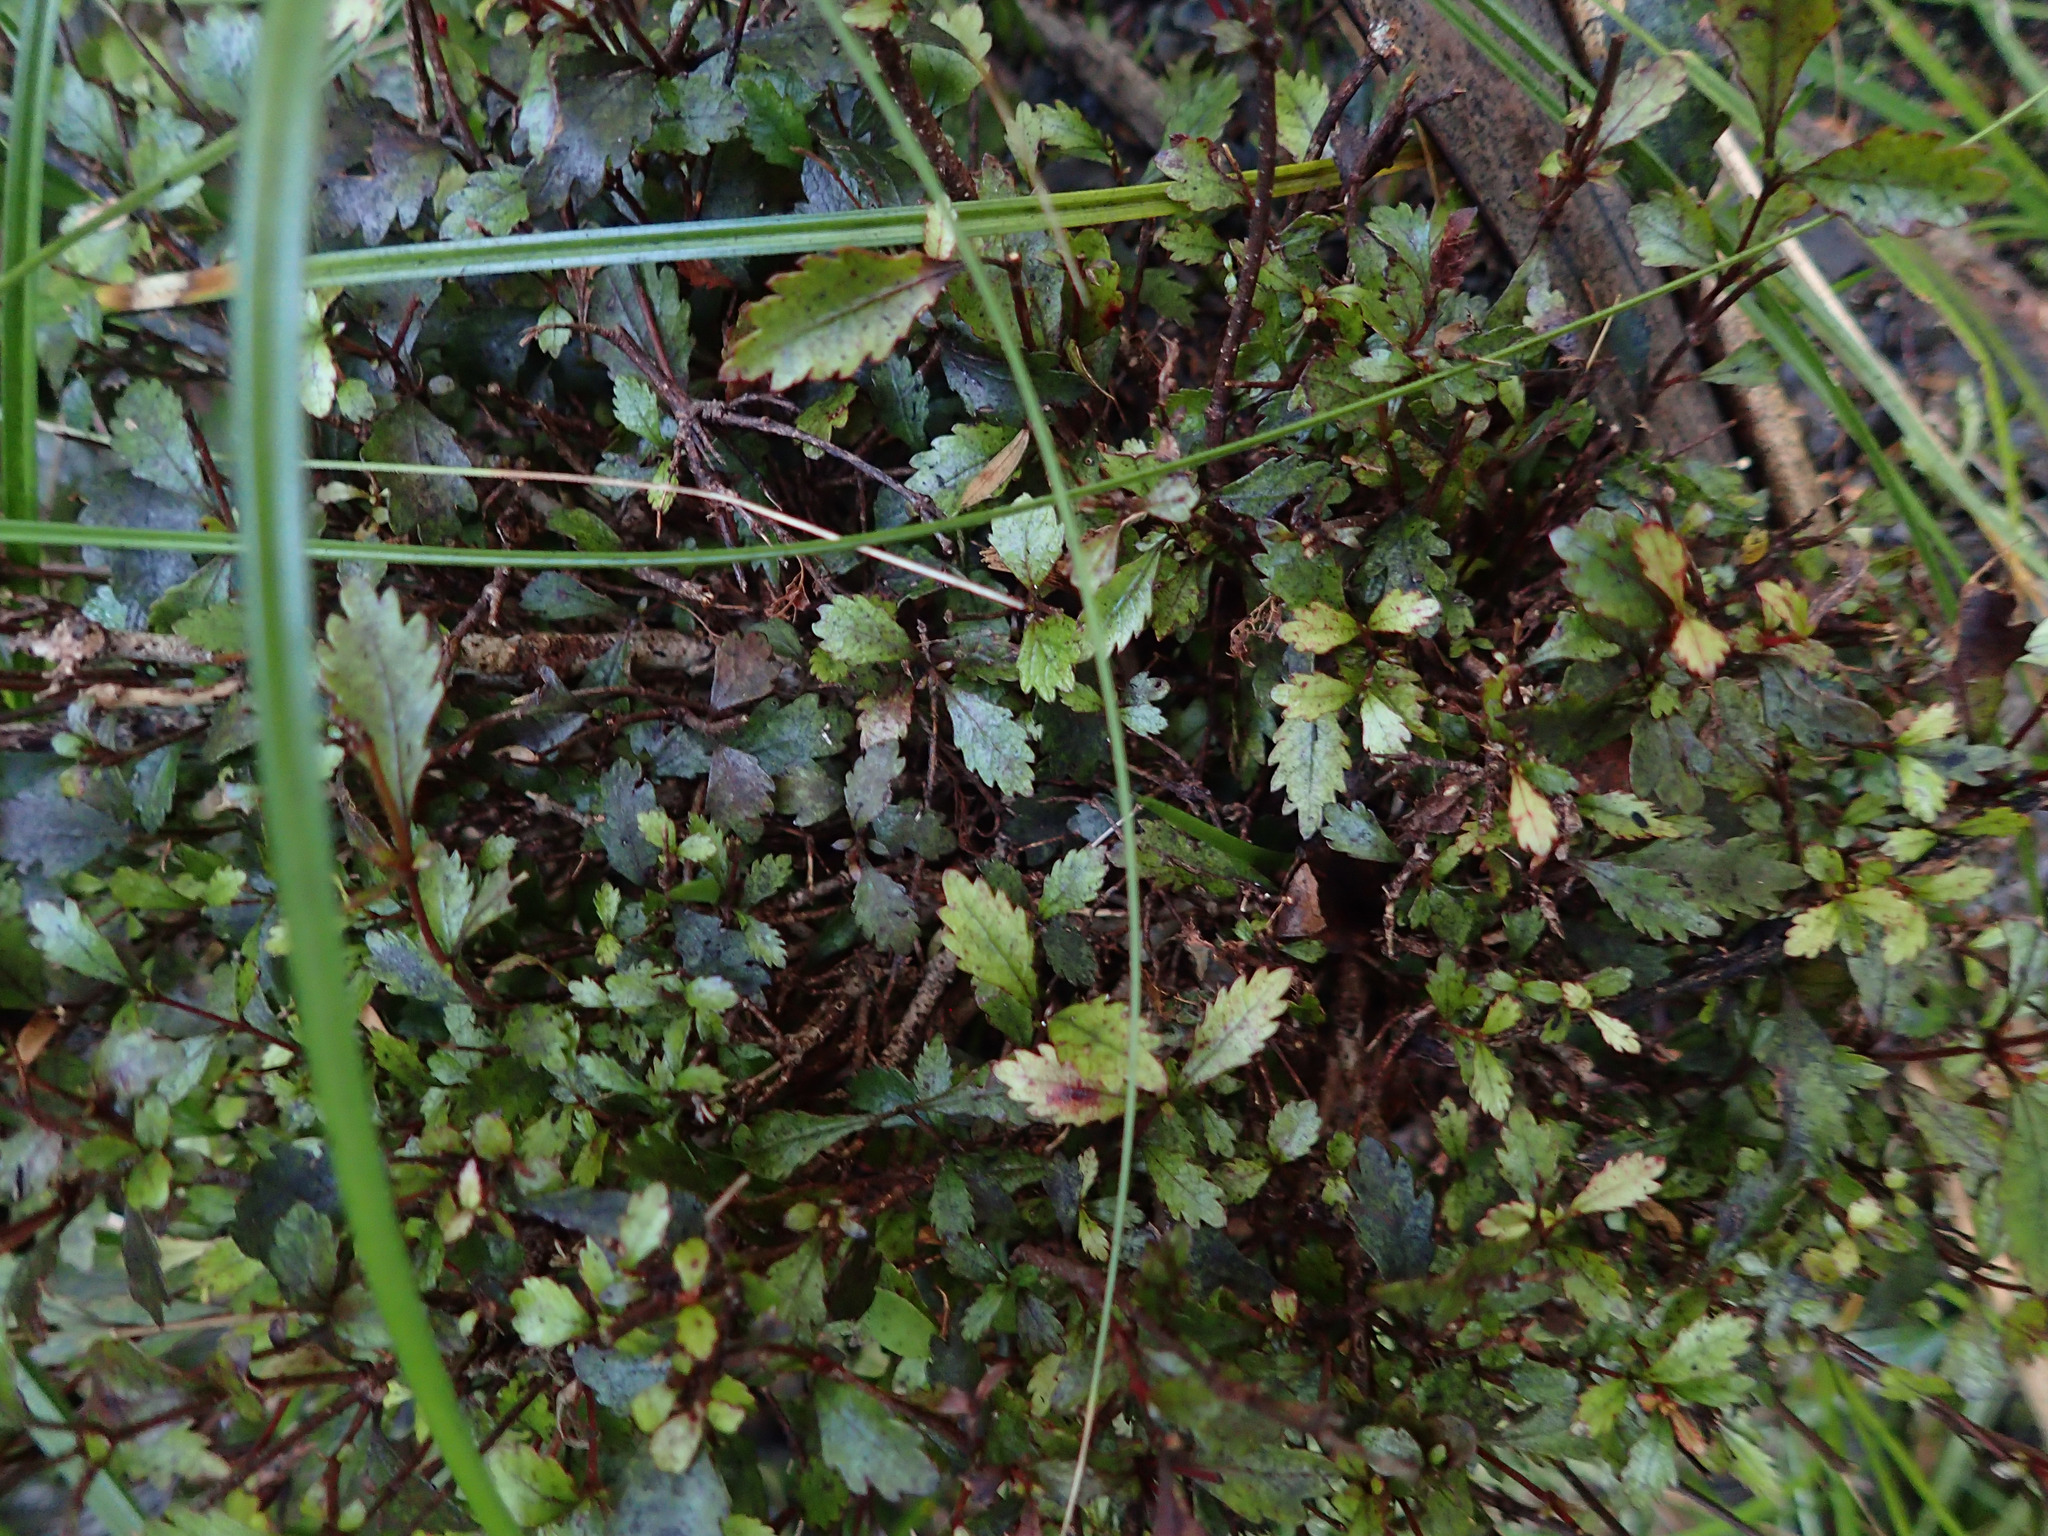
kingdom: Plantae
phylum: Tracheophyta
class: Magnoliopsida
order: Oxalidales
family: Cunoniaceae
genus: Pterophylla
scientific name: Pterophylla racemosa
